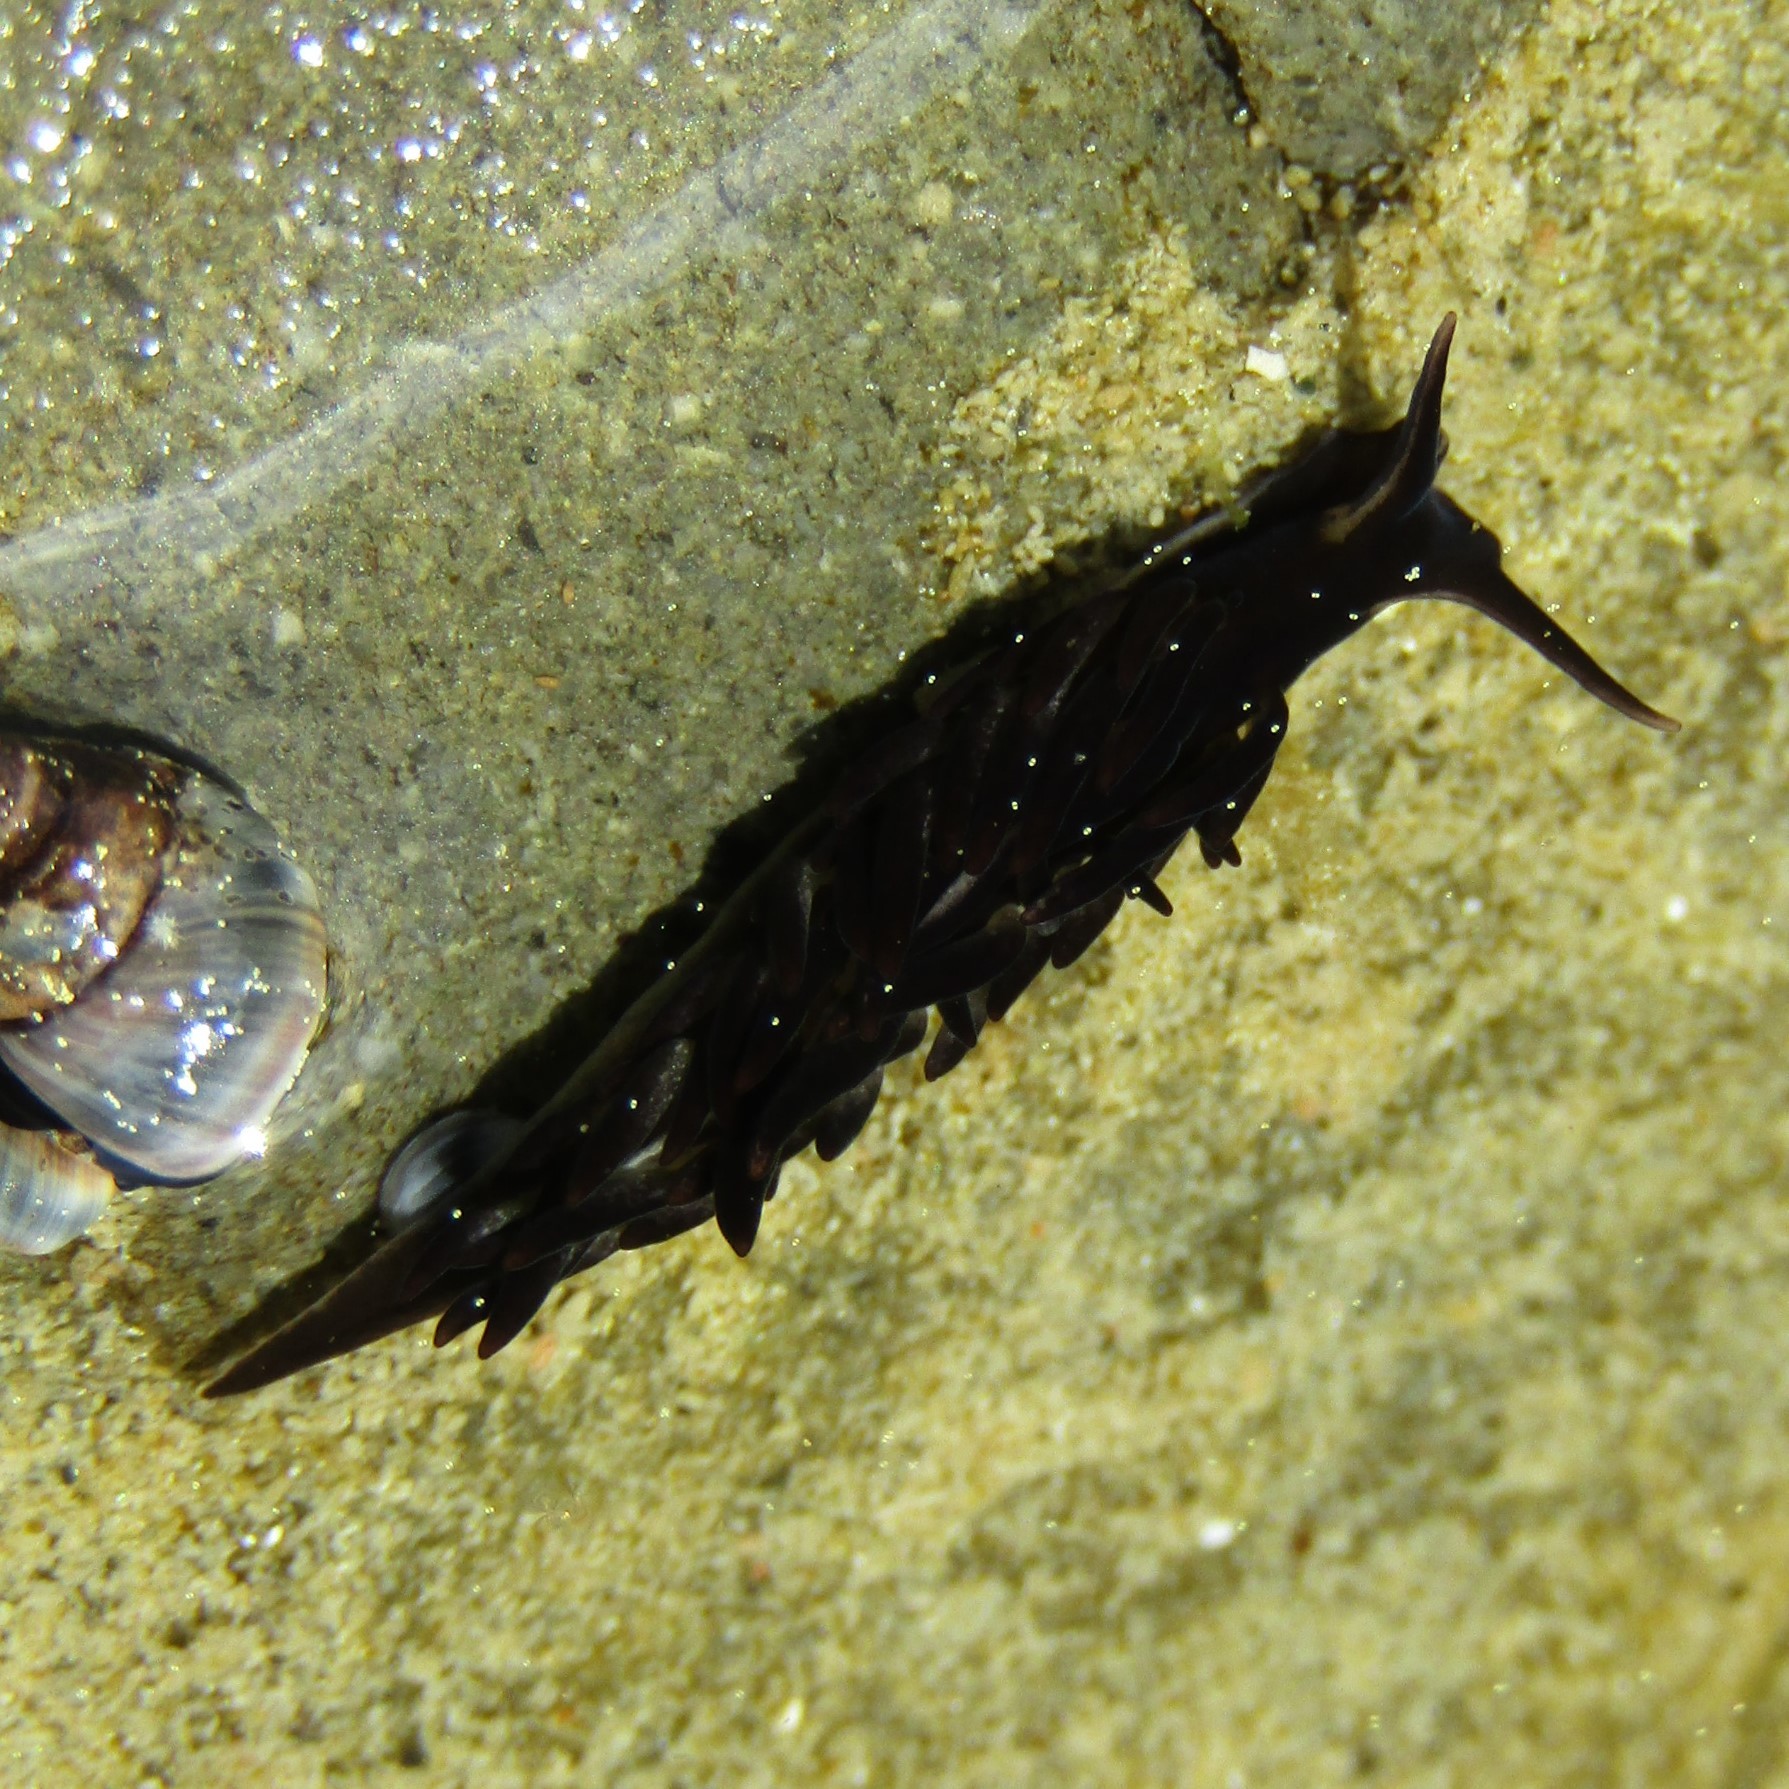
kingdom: Animalia
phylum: Mollusca
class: Gastropoda
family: Limapontiidae
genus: Ercolania
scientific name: Ercolania felina
